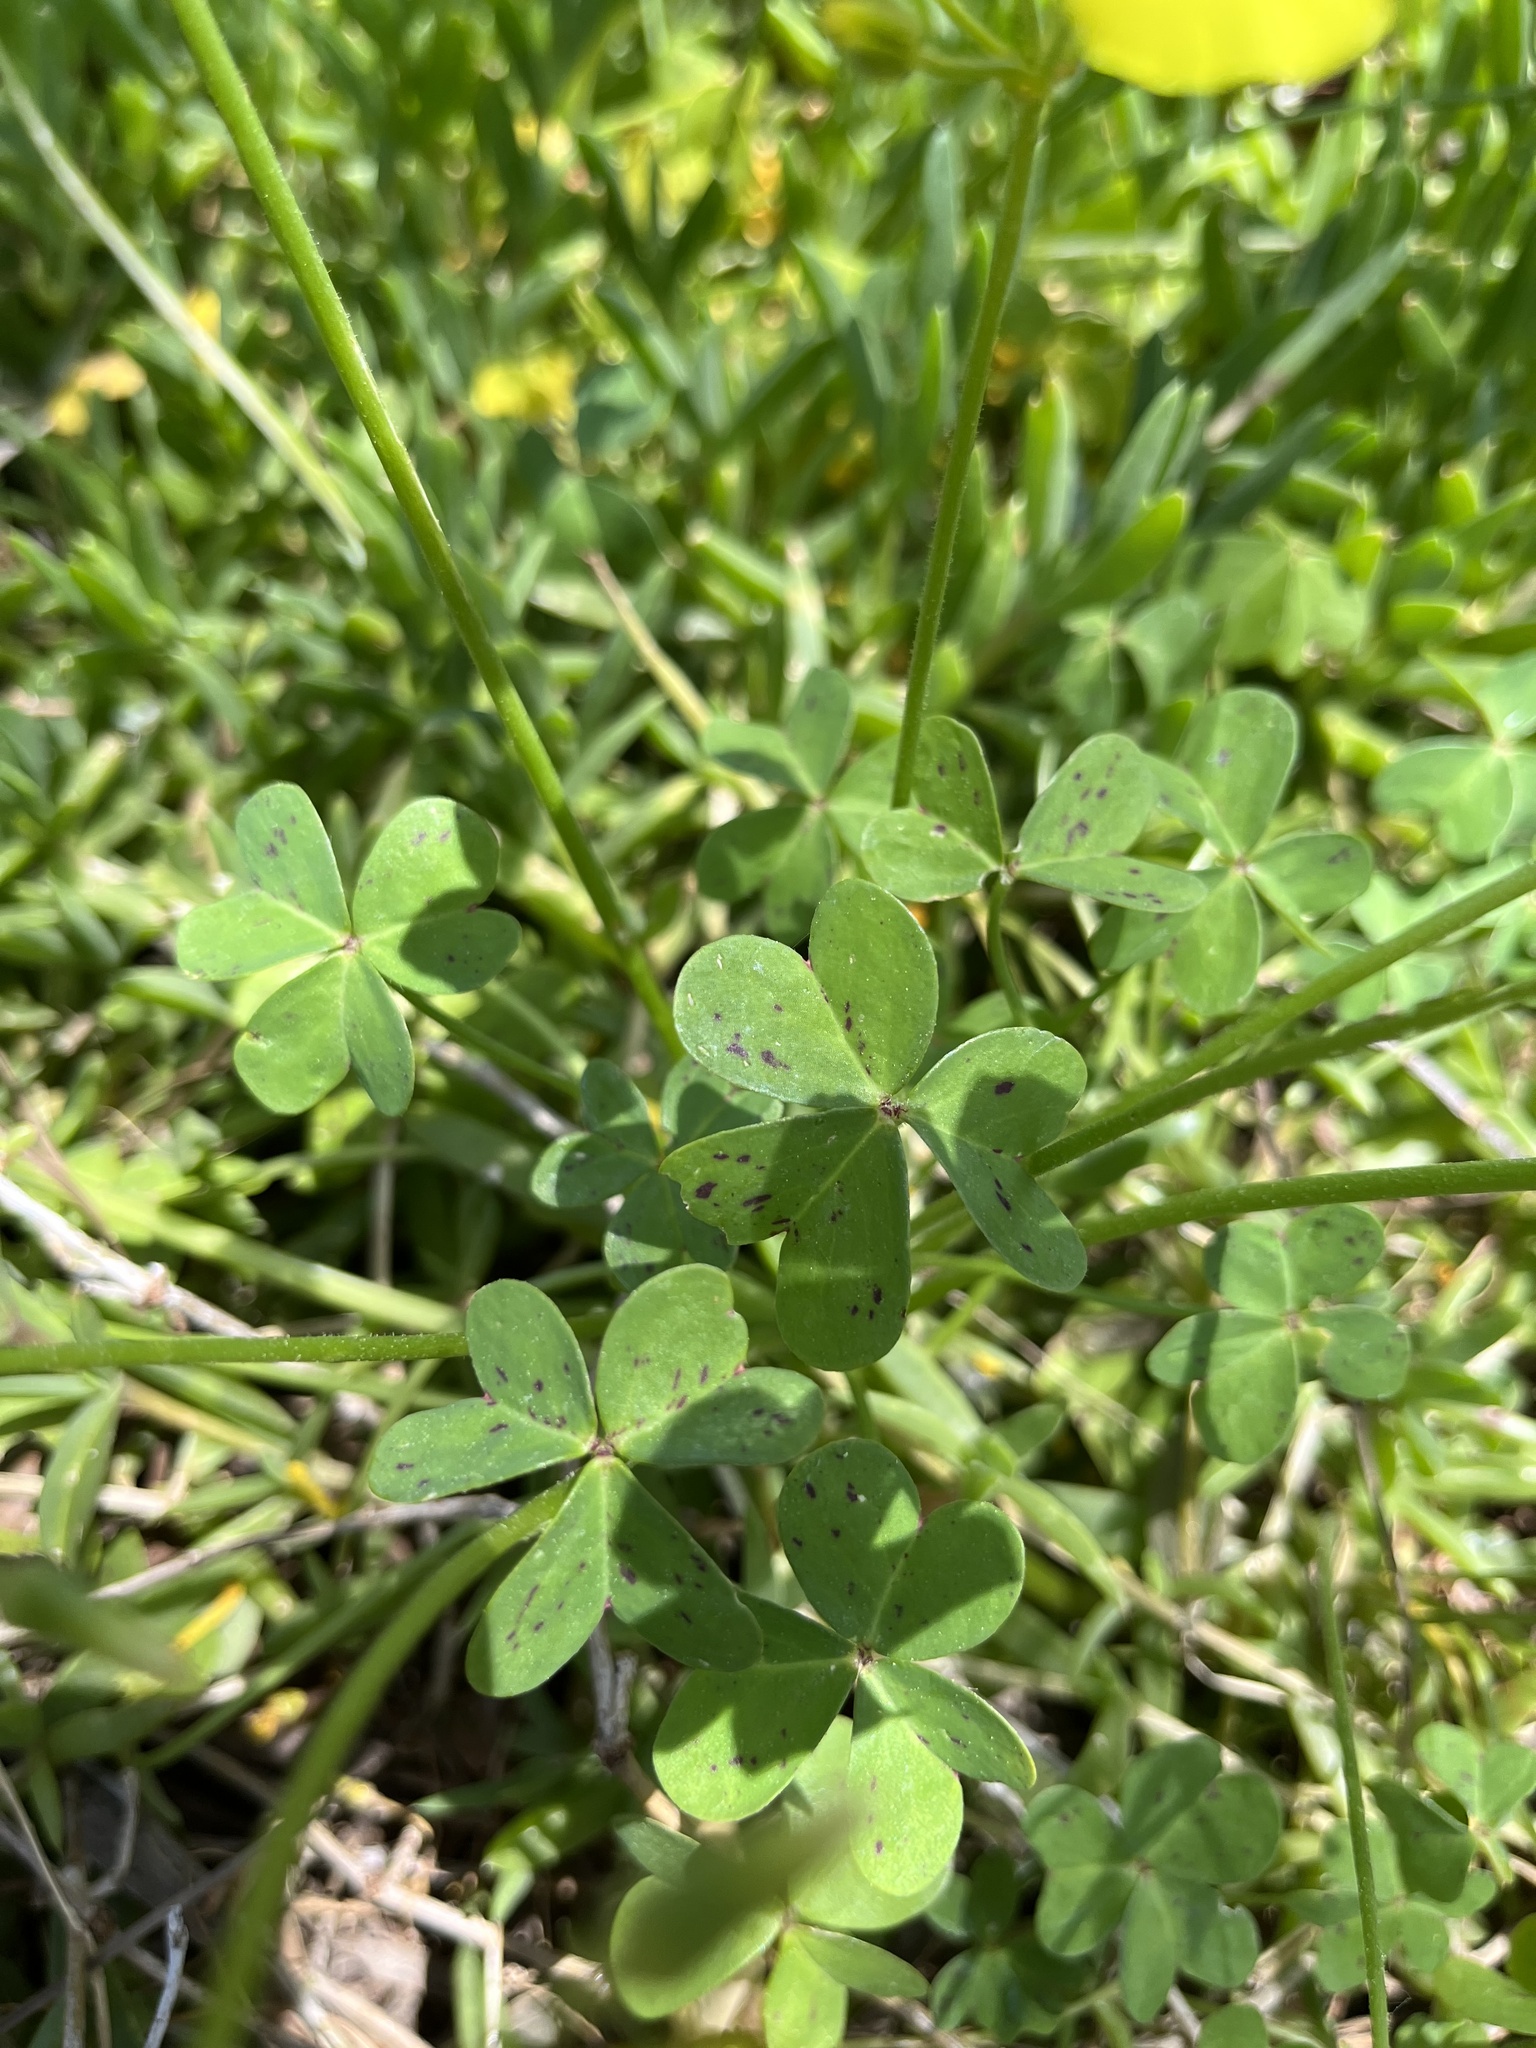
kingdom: Plantae
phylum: Tracheophyta
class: Magnoliopsida
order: Oxalidales
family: Oxalidaceae
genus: Oxalis
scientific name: Oxalis pes-caprae
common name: Bermuda-buttercup
